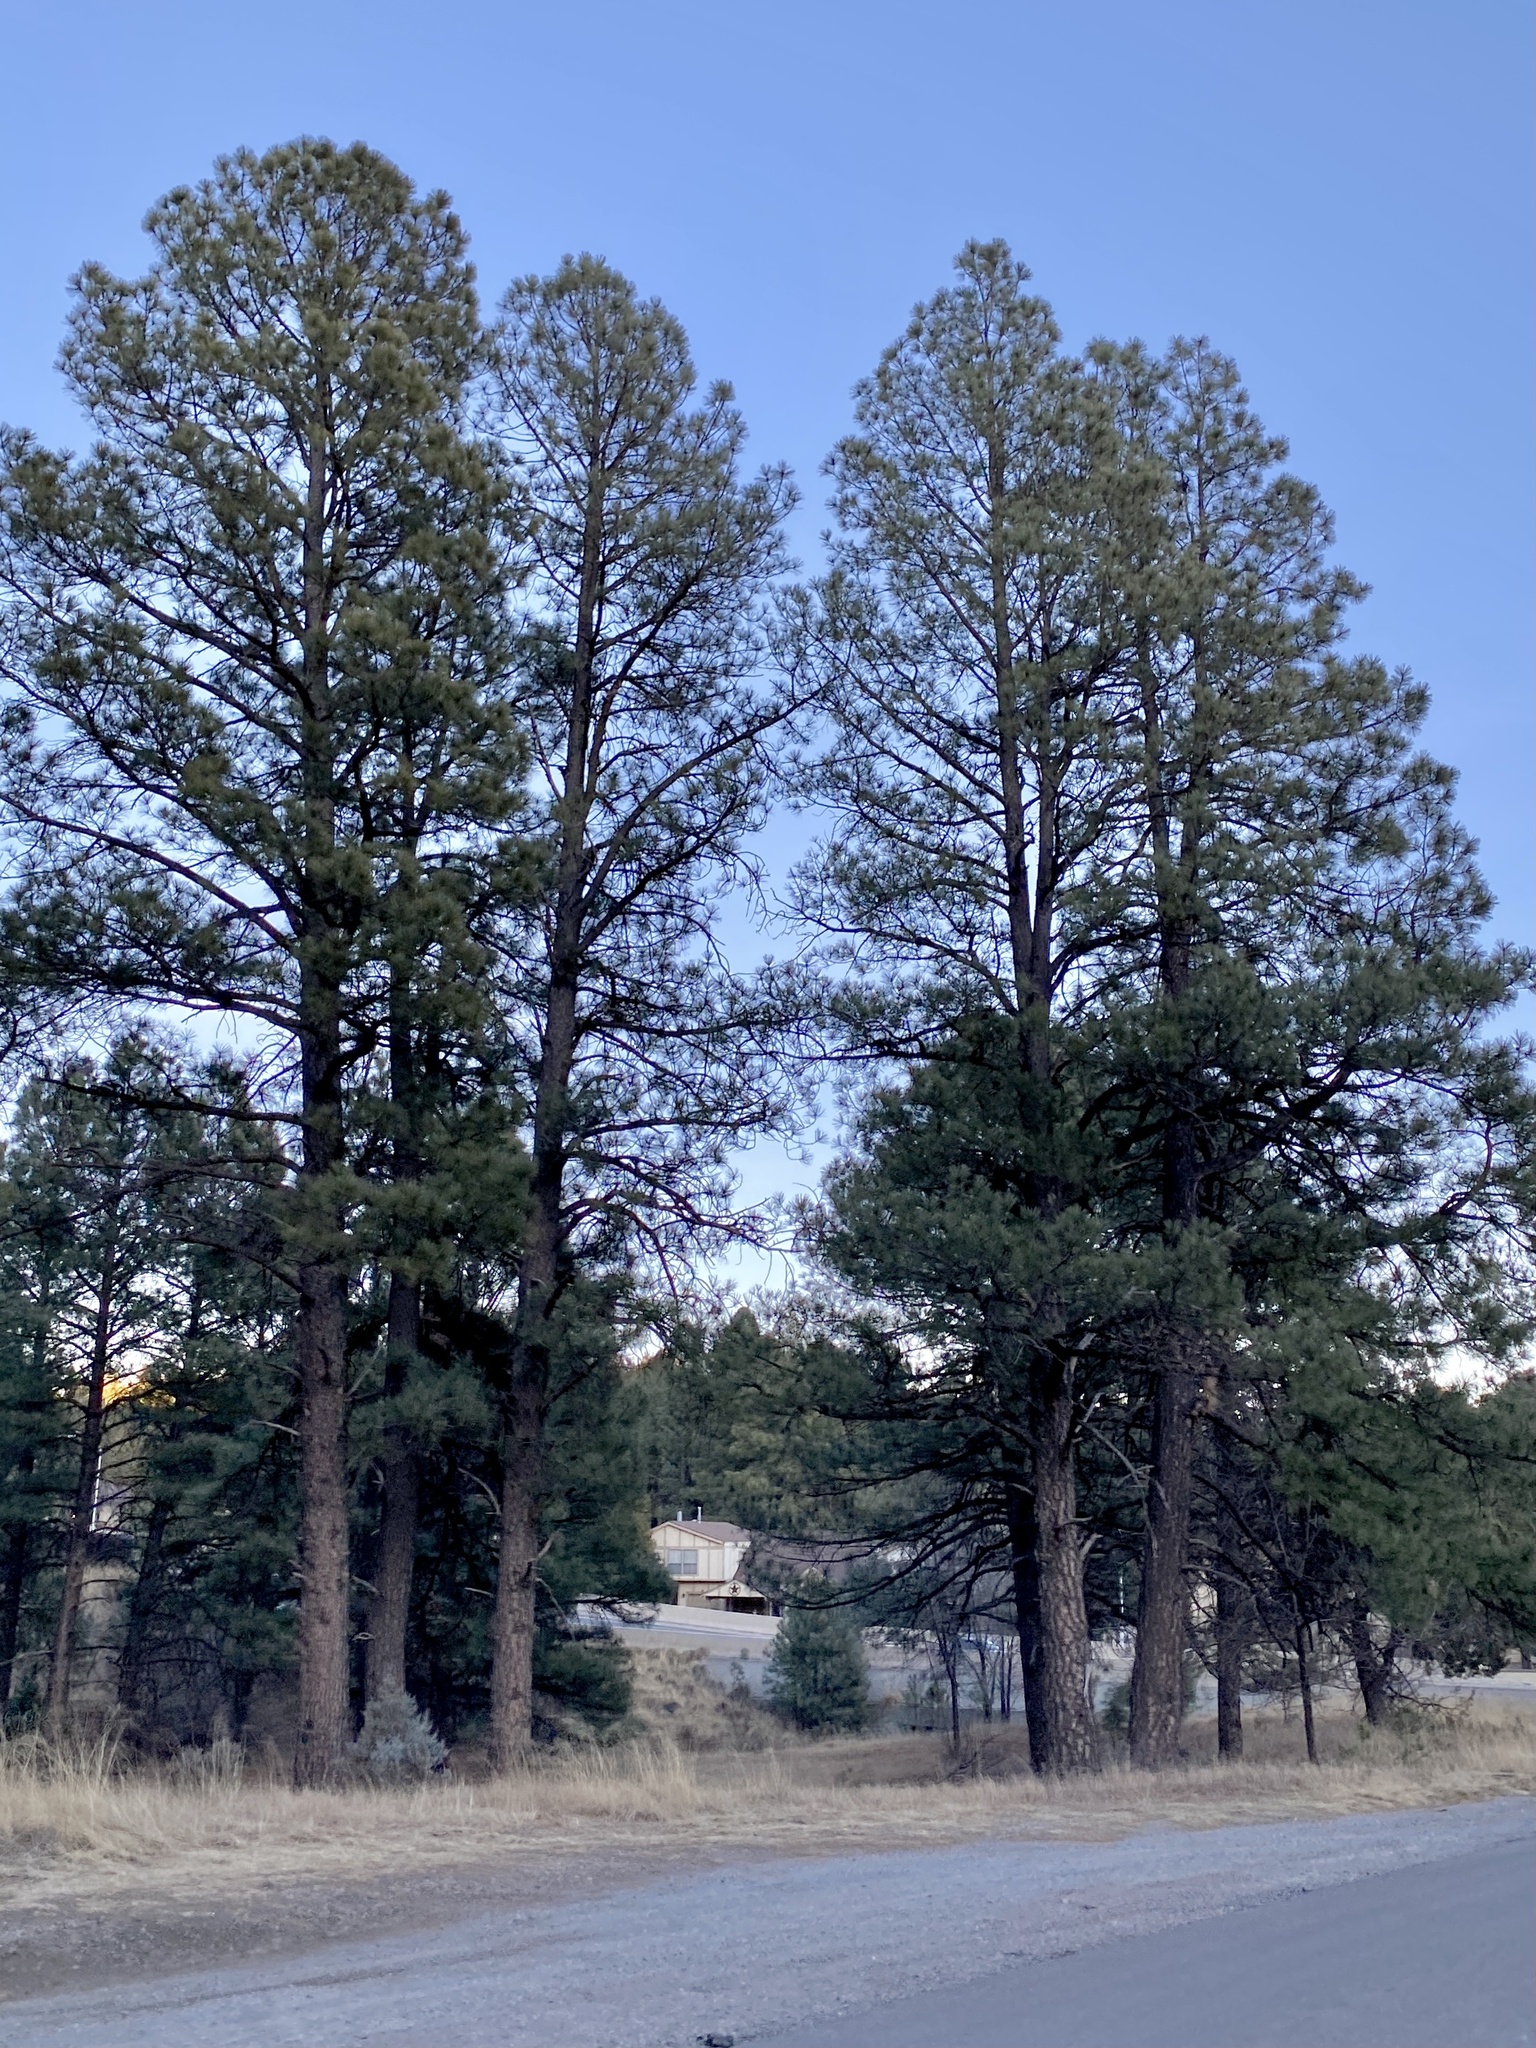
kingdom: Plantae
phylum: Tracheophyta
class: Pinopsida
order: Pinales
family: Pinaceae
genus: Pinus
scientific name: Pinus ponderosa
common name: Western yellow-pine
